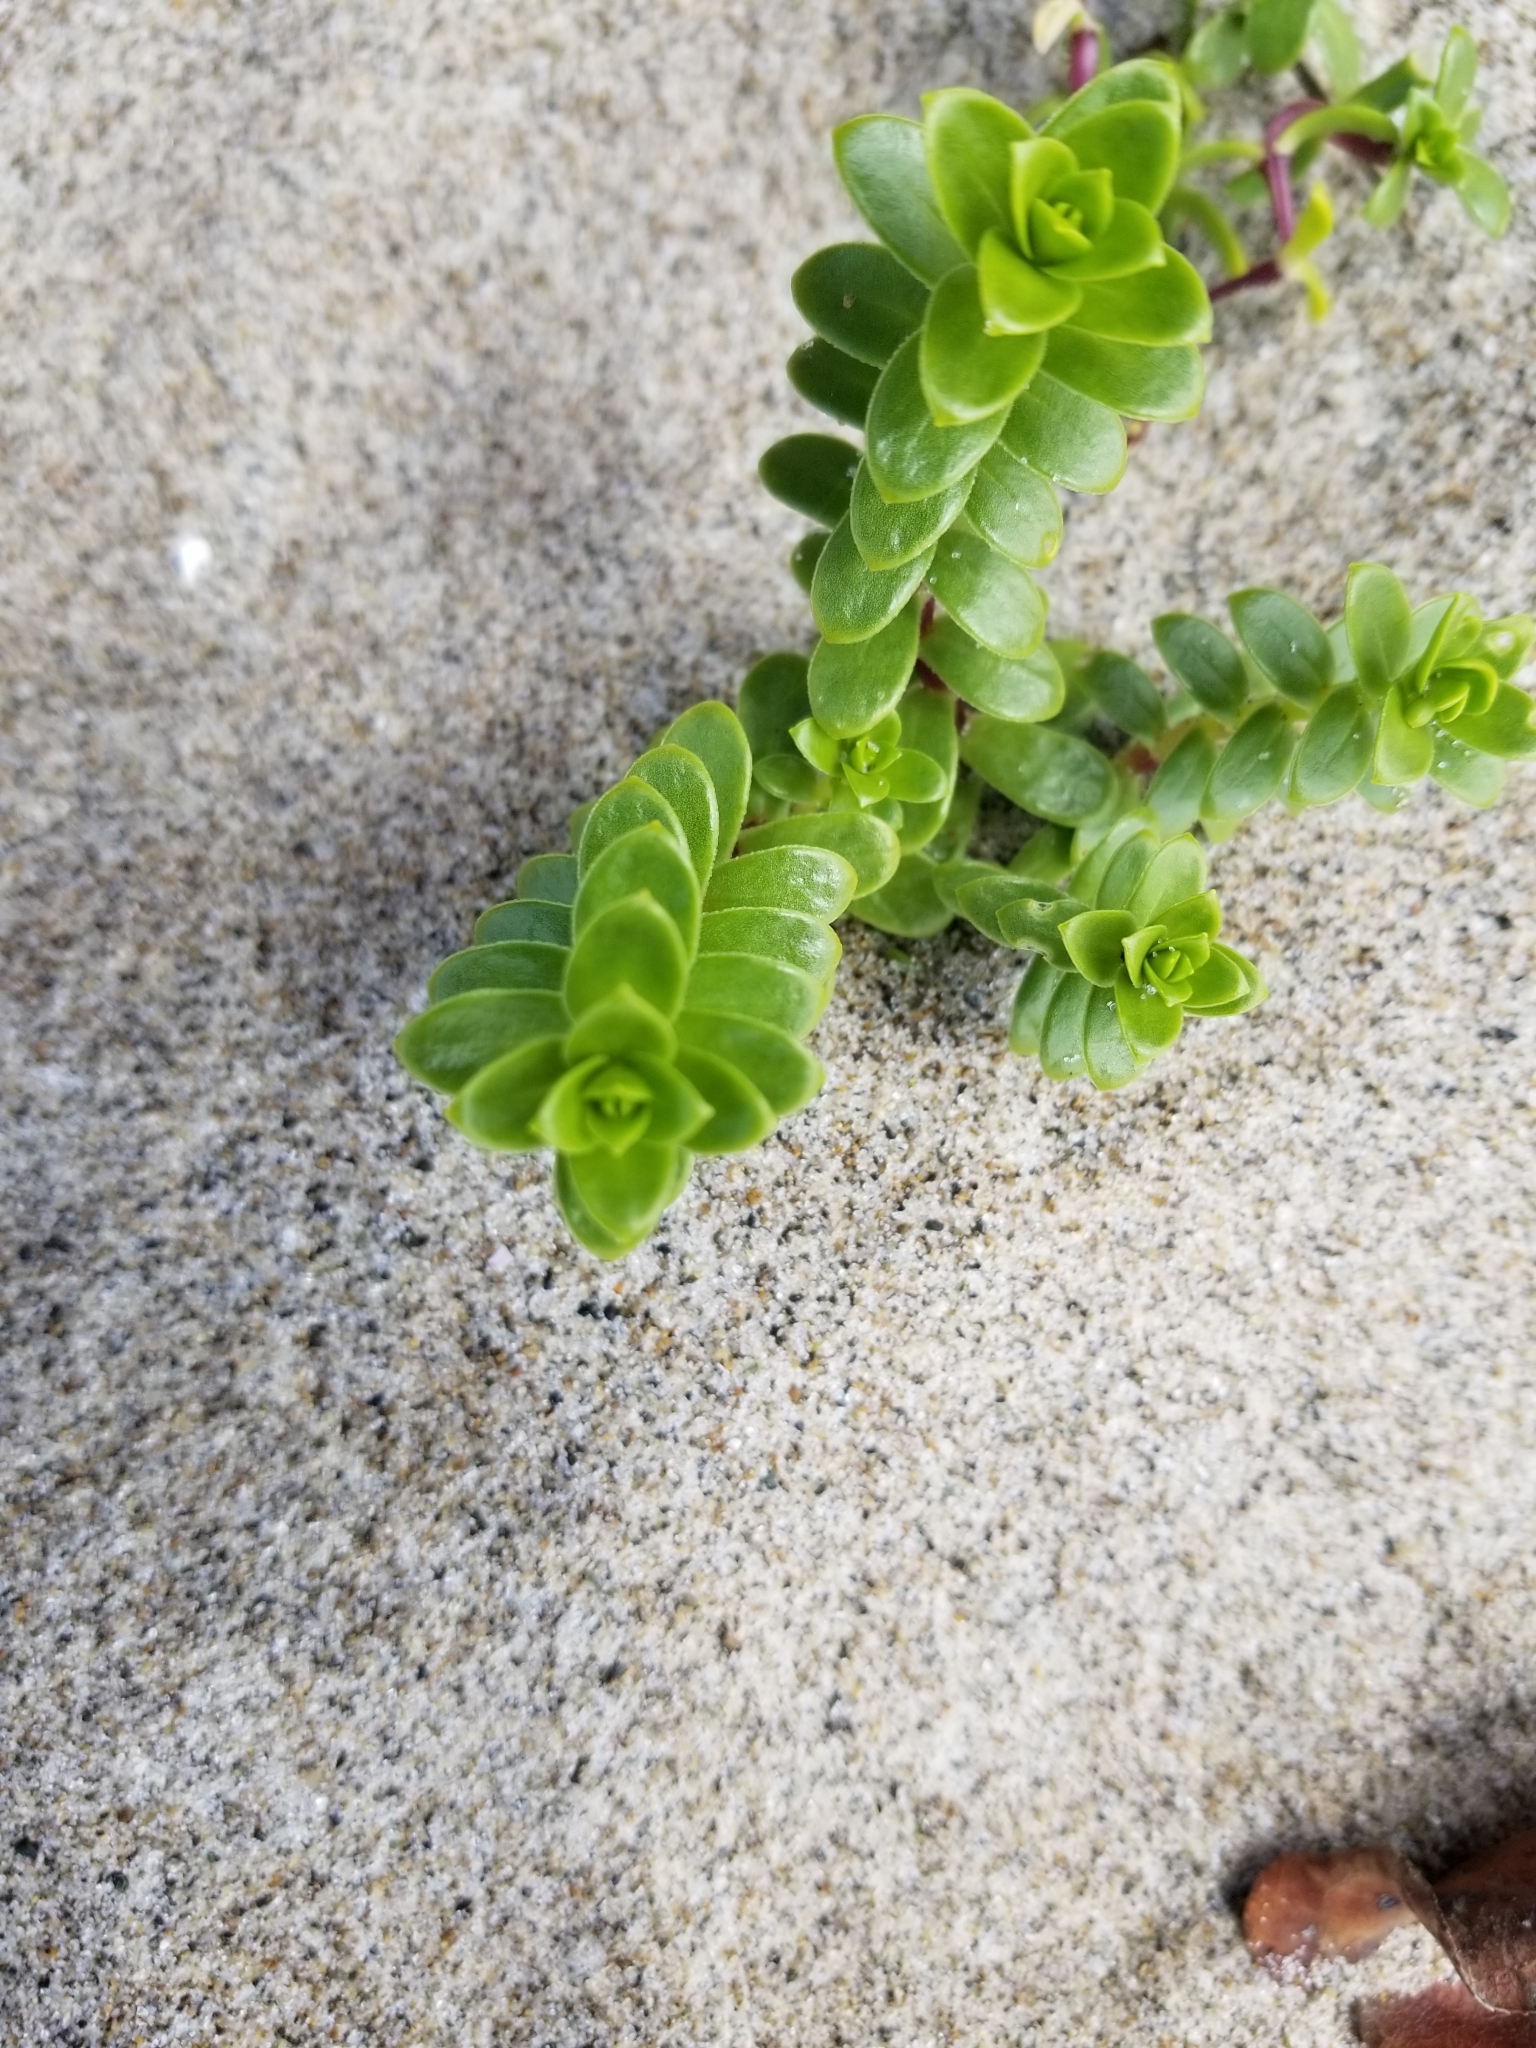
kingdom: Plantae
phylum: Tracheophyta
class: Magnoliopsida
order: Caryophyllales
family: Caryophyllaceae
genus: Honckenya
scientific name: Honckenya peploides
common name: Sea sandwort
